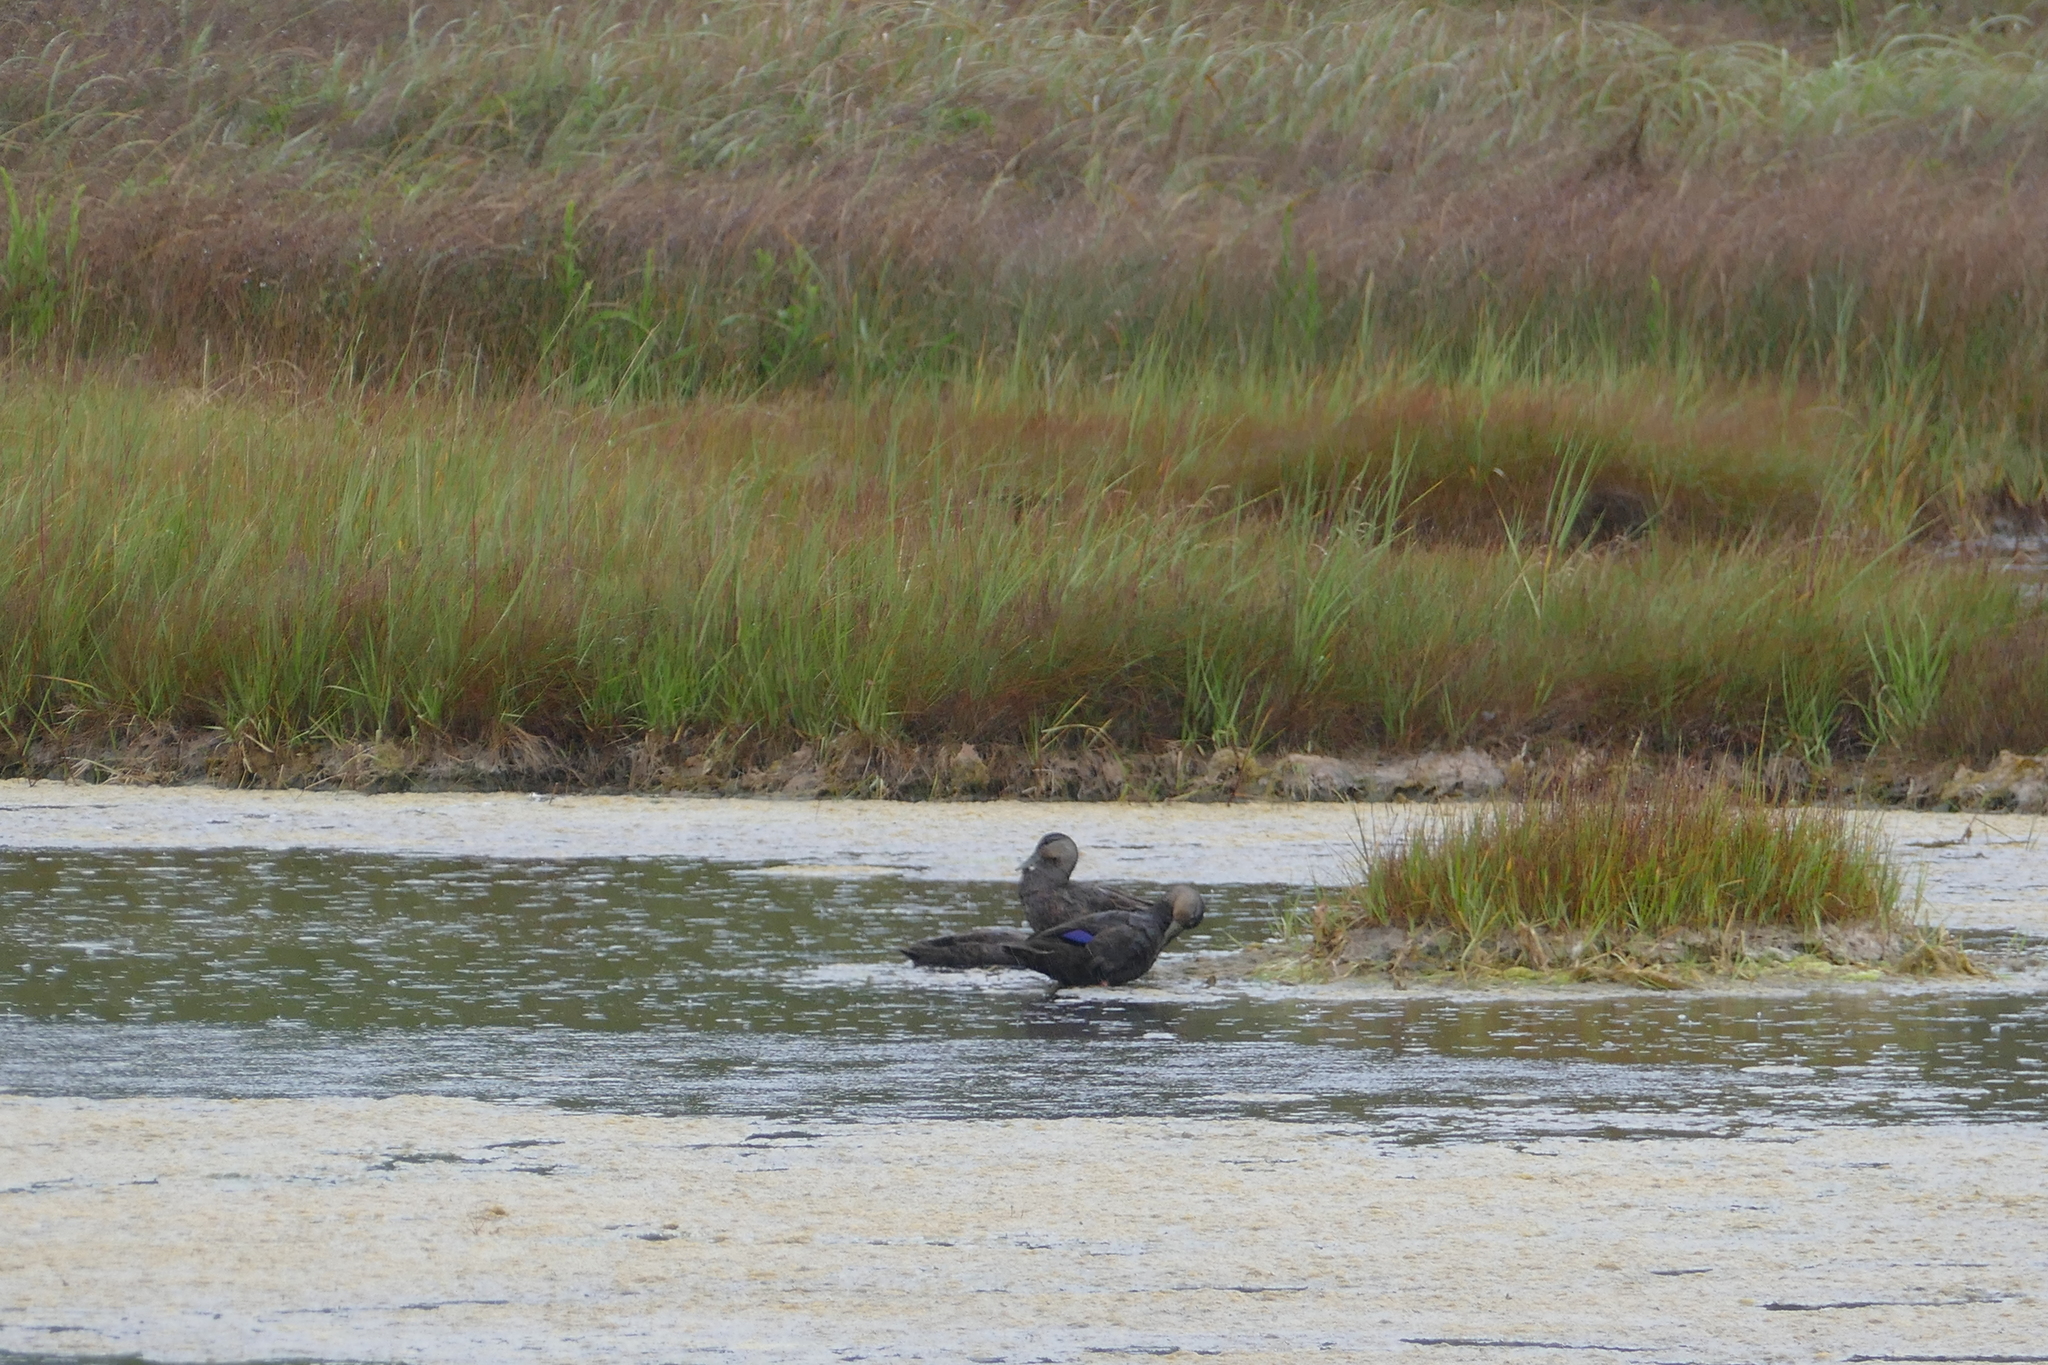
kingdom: Animalia
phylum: Chordata
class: Aves
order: Anseriformes
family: Anatidae
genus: Anas
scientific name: Anas rubripes
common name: American black duck
